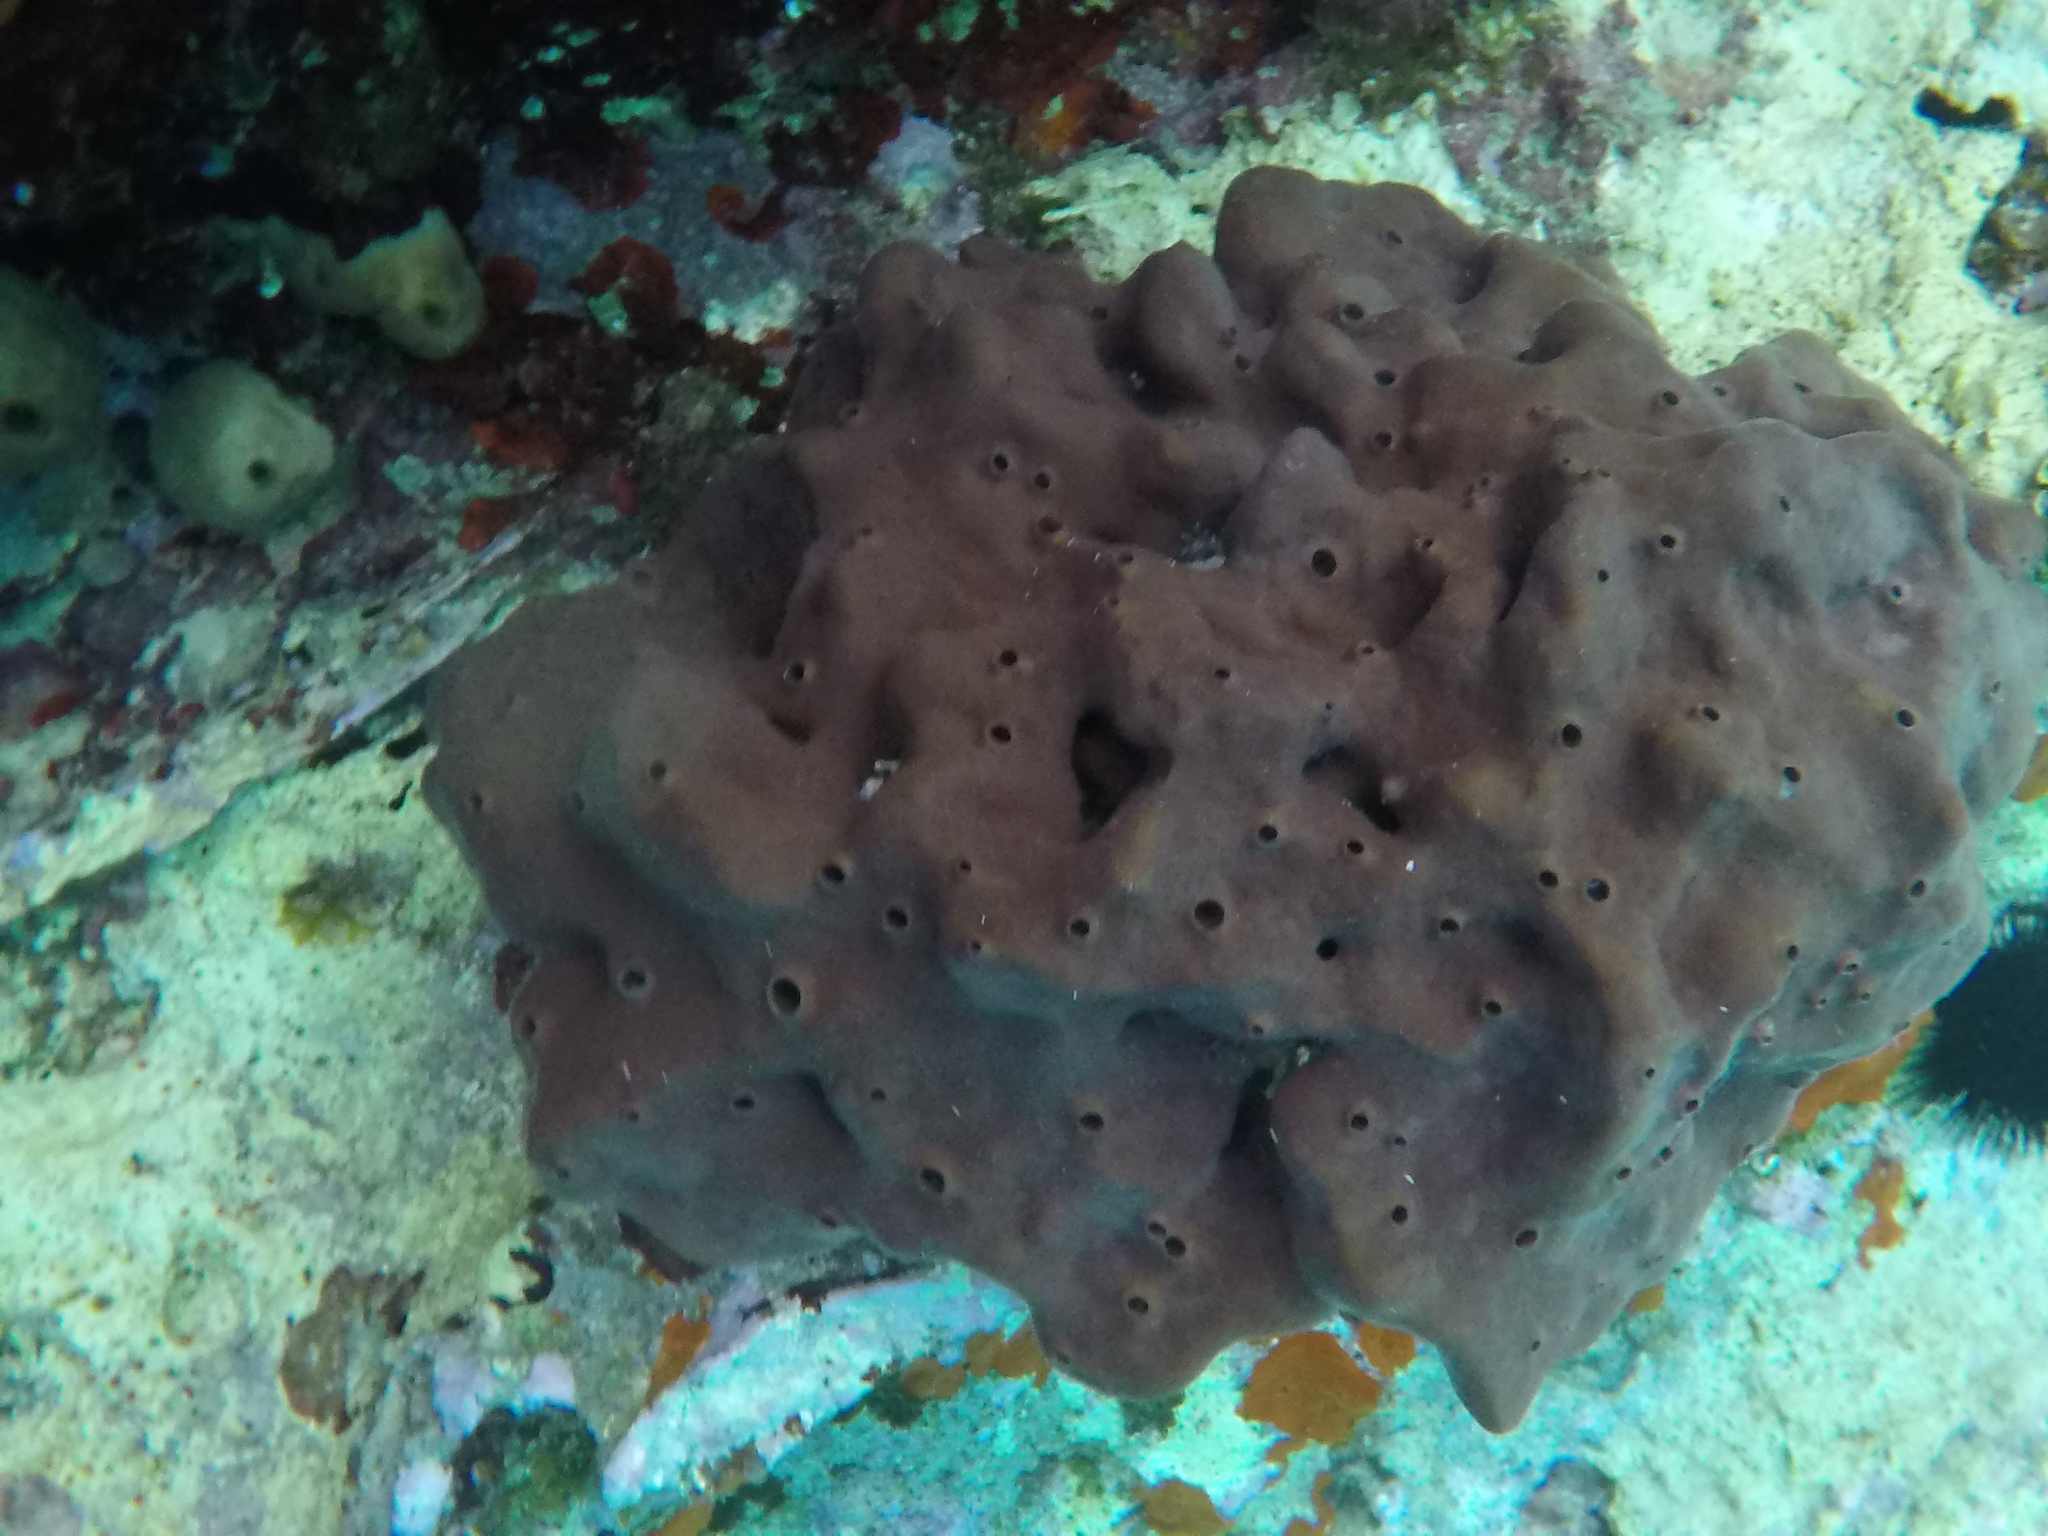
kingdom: Animalia
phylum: Porifera
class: Demospongiae
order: Haplosclerida
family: Petrosiidae
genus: Petrosia
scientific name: Petrosia ficiformis
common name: Stony sponge
